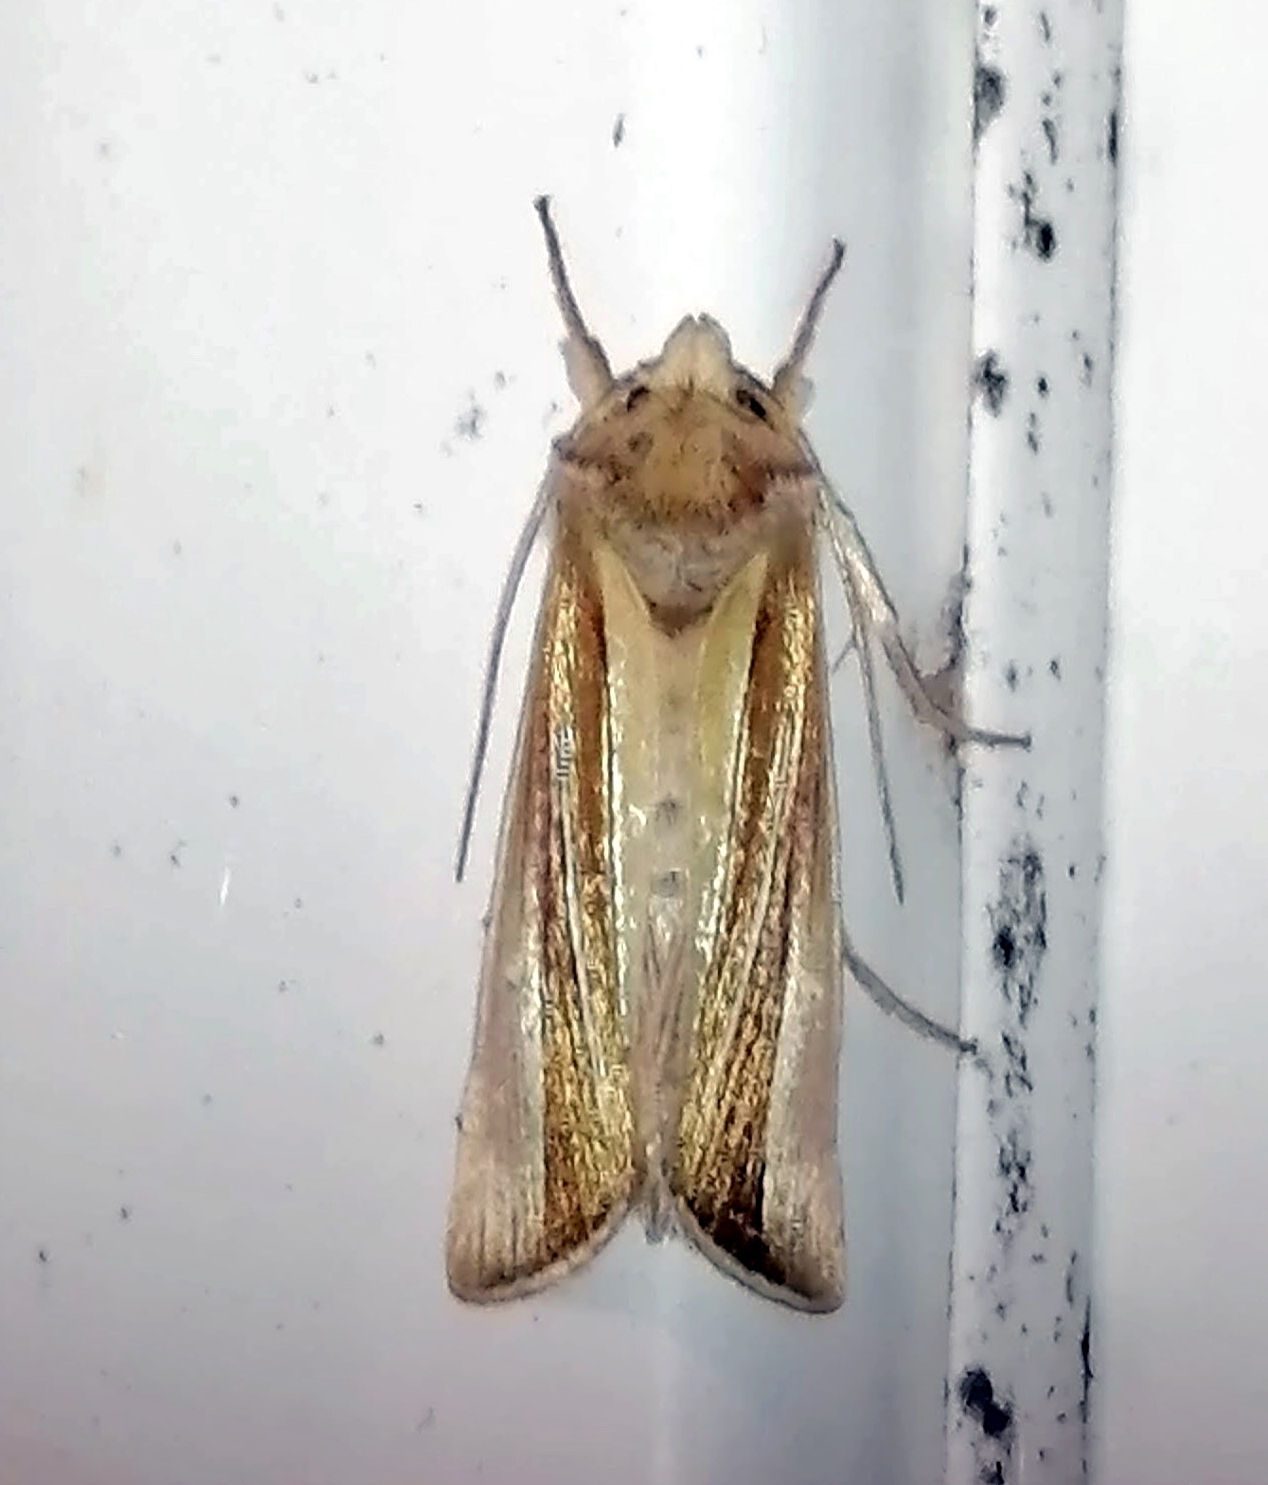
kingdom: Animalia
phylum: Arthropoda
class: Insecta
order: Lepidoptera
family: Noctuidae
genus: Plusia
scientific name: Plusia venusta
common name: White-streaked looper moth
